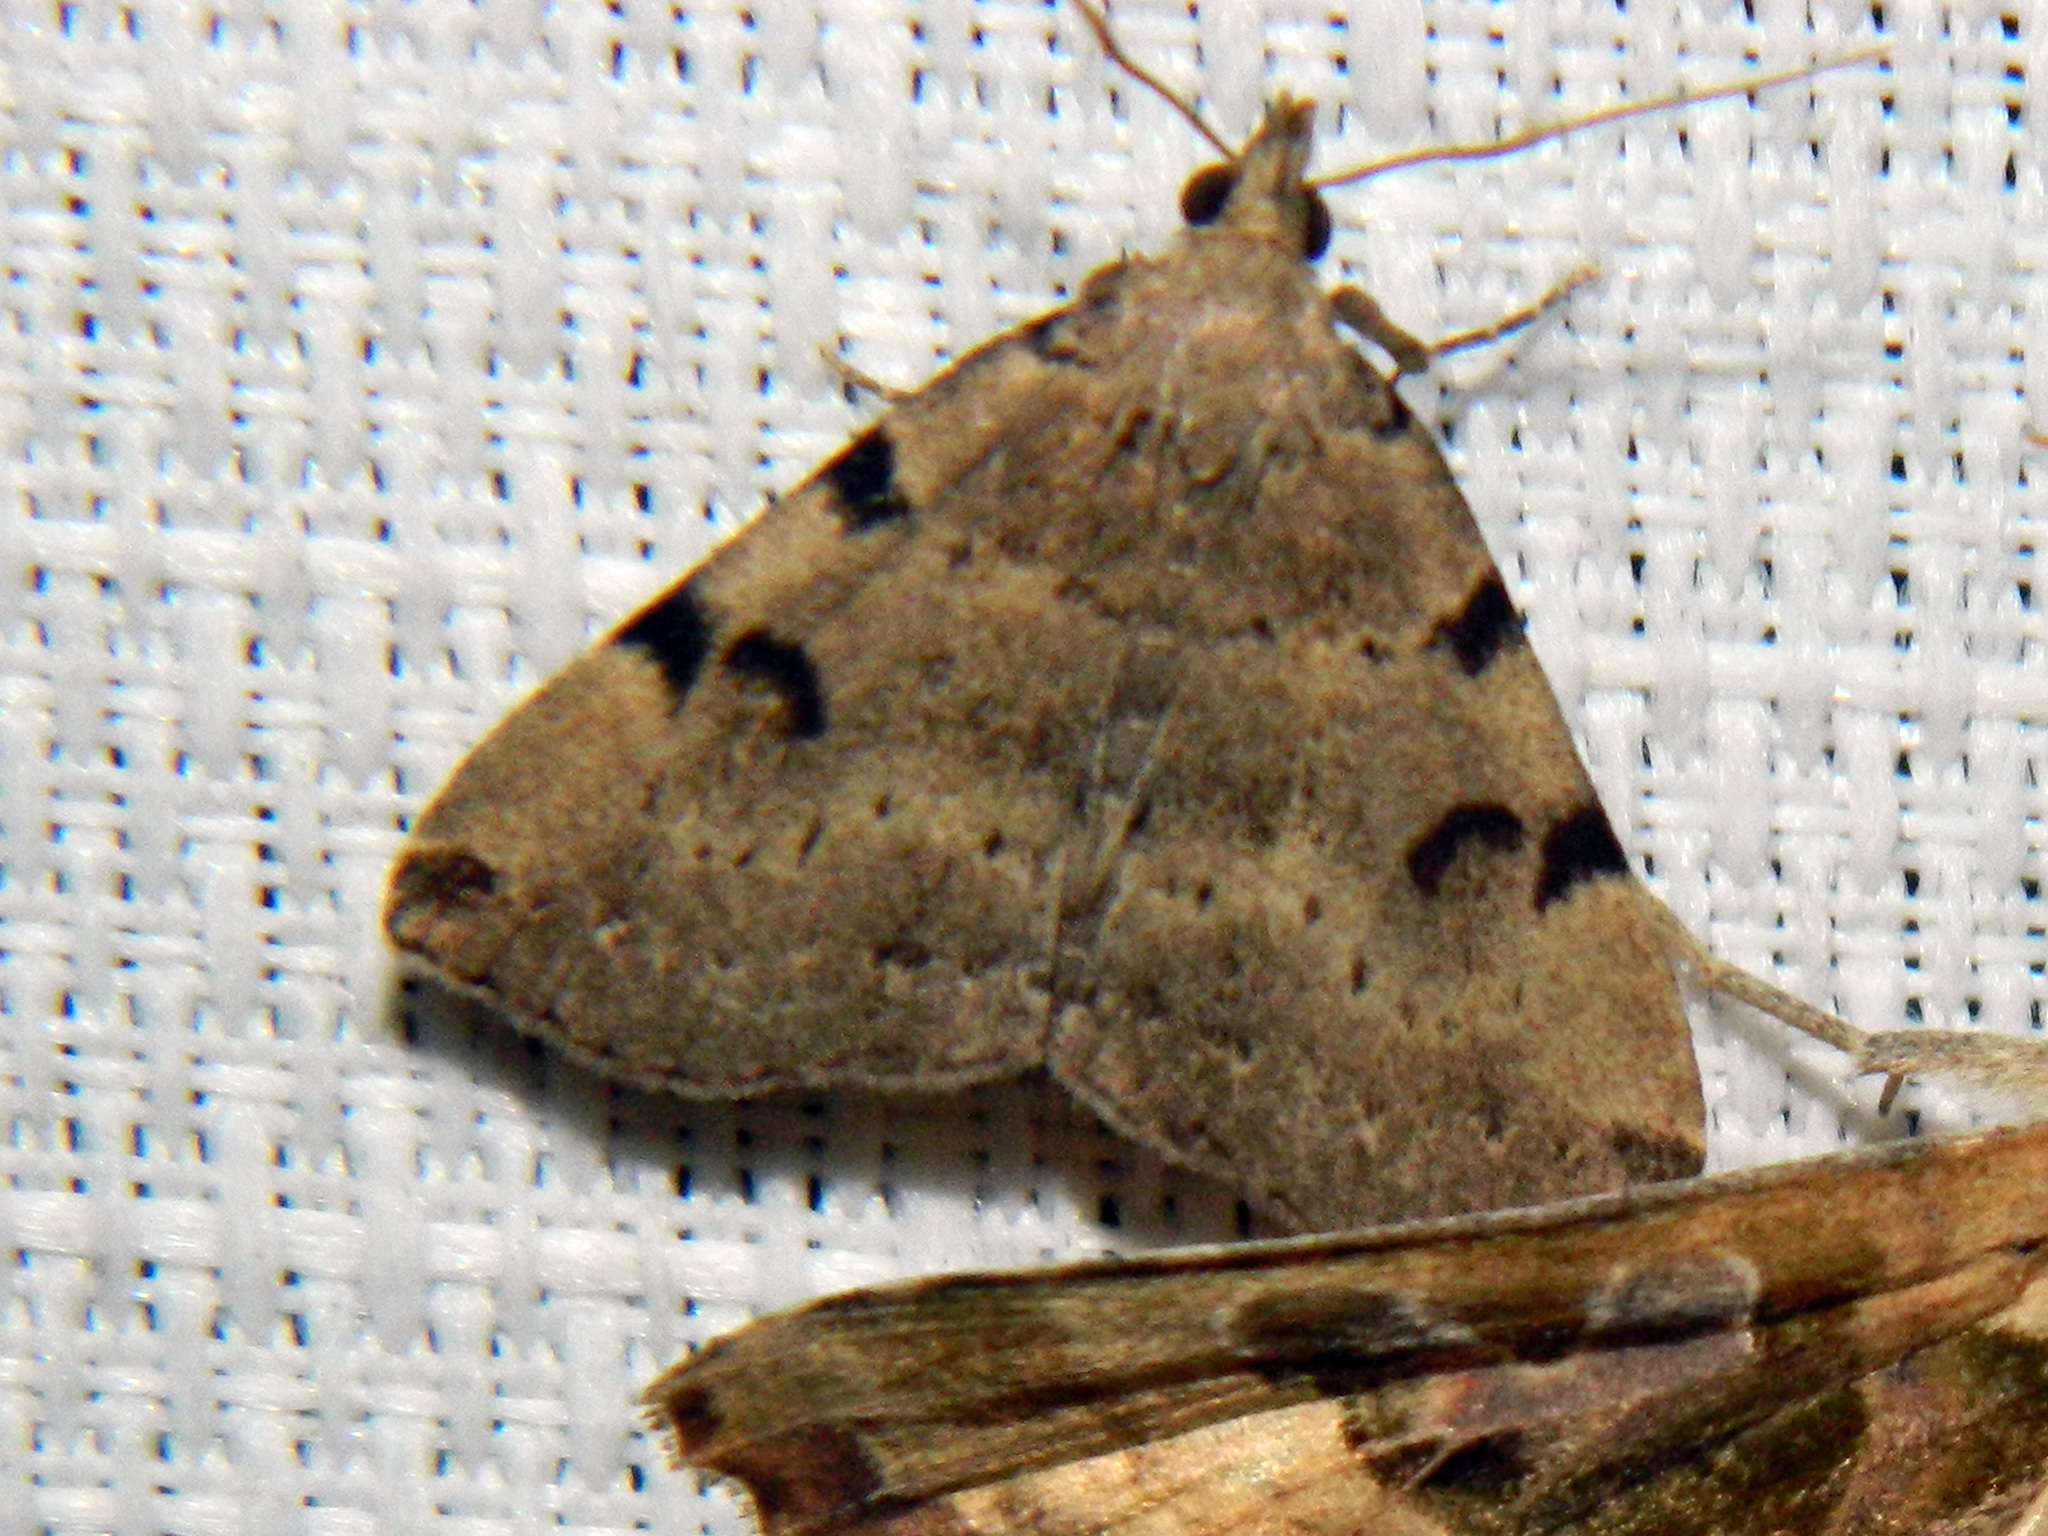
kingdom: Animalia
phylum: Arthropoda
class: Insecta
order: Lepidoptera
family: Erebidae
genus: Zanclognatha
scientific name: Zanclognatha lituralis
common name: Lettered fan-foot
